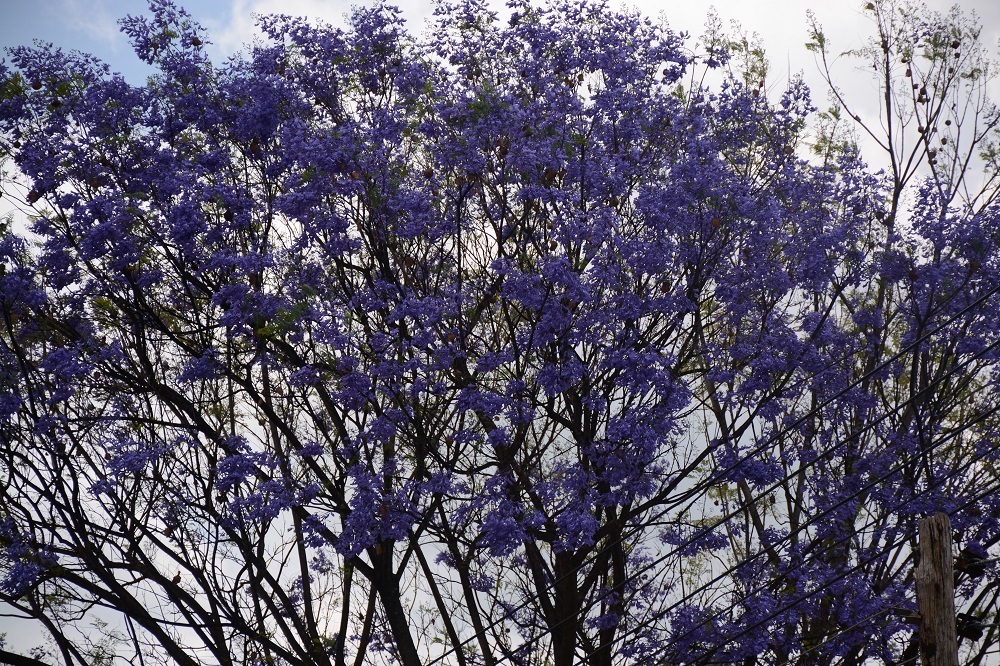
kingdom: Plantae
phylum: Tracheophyta
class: Magnoliopsida
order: Lamiales
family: Bignoniaceae
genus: Jacaranda
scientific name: Jacaranda mimosifolia
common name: Black poui
